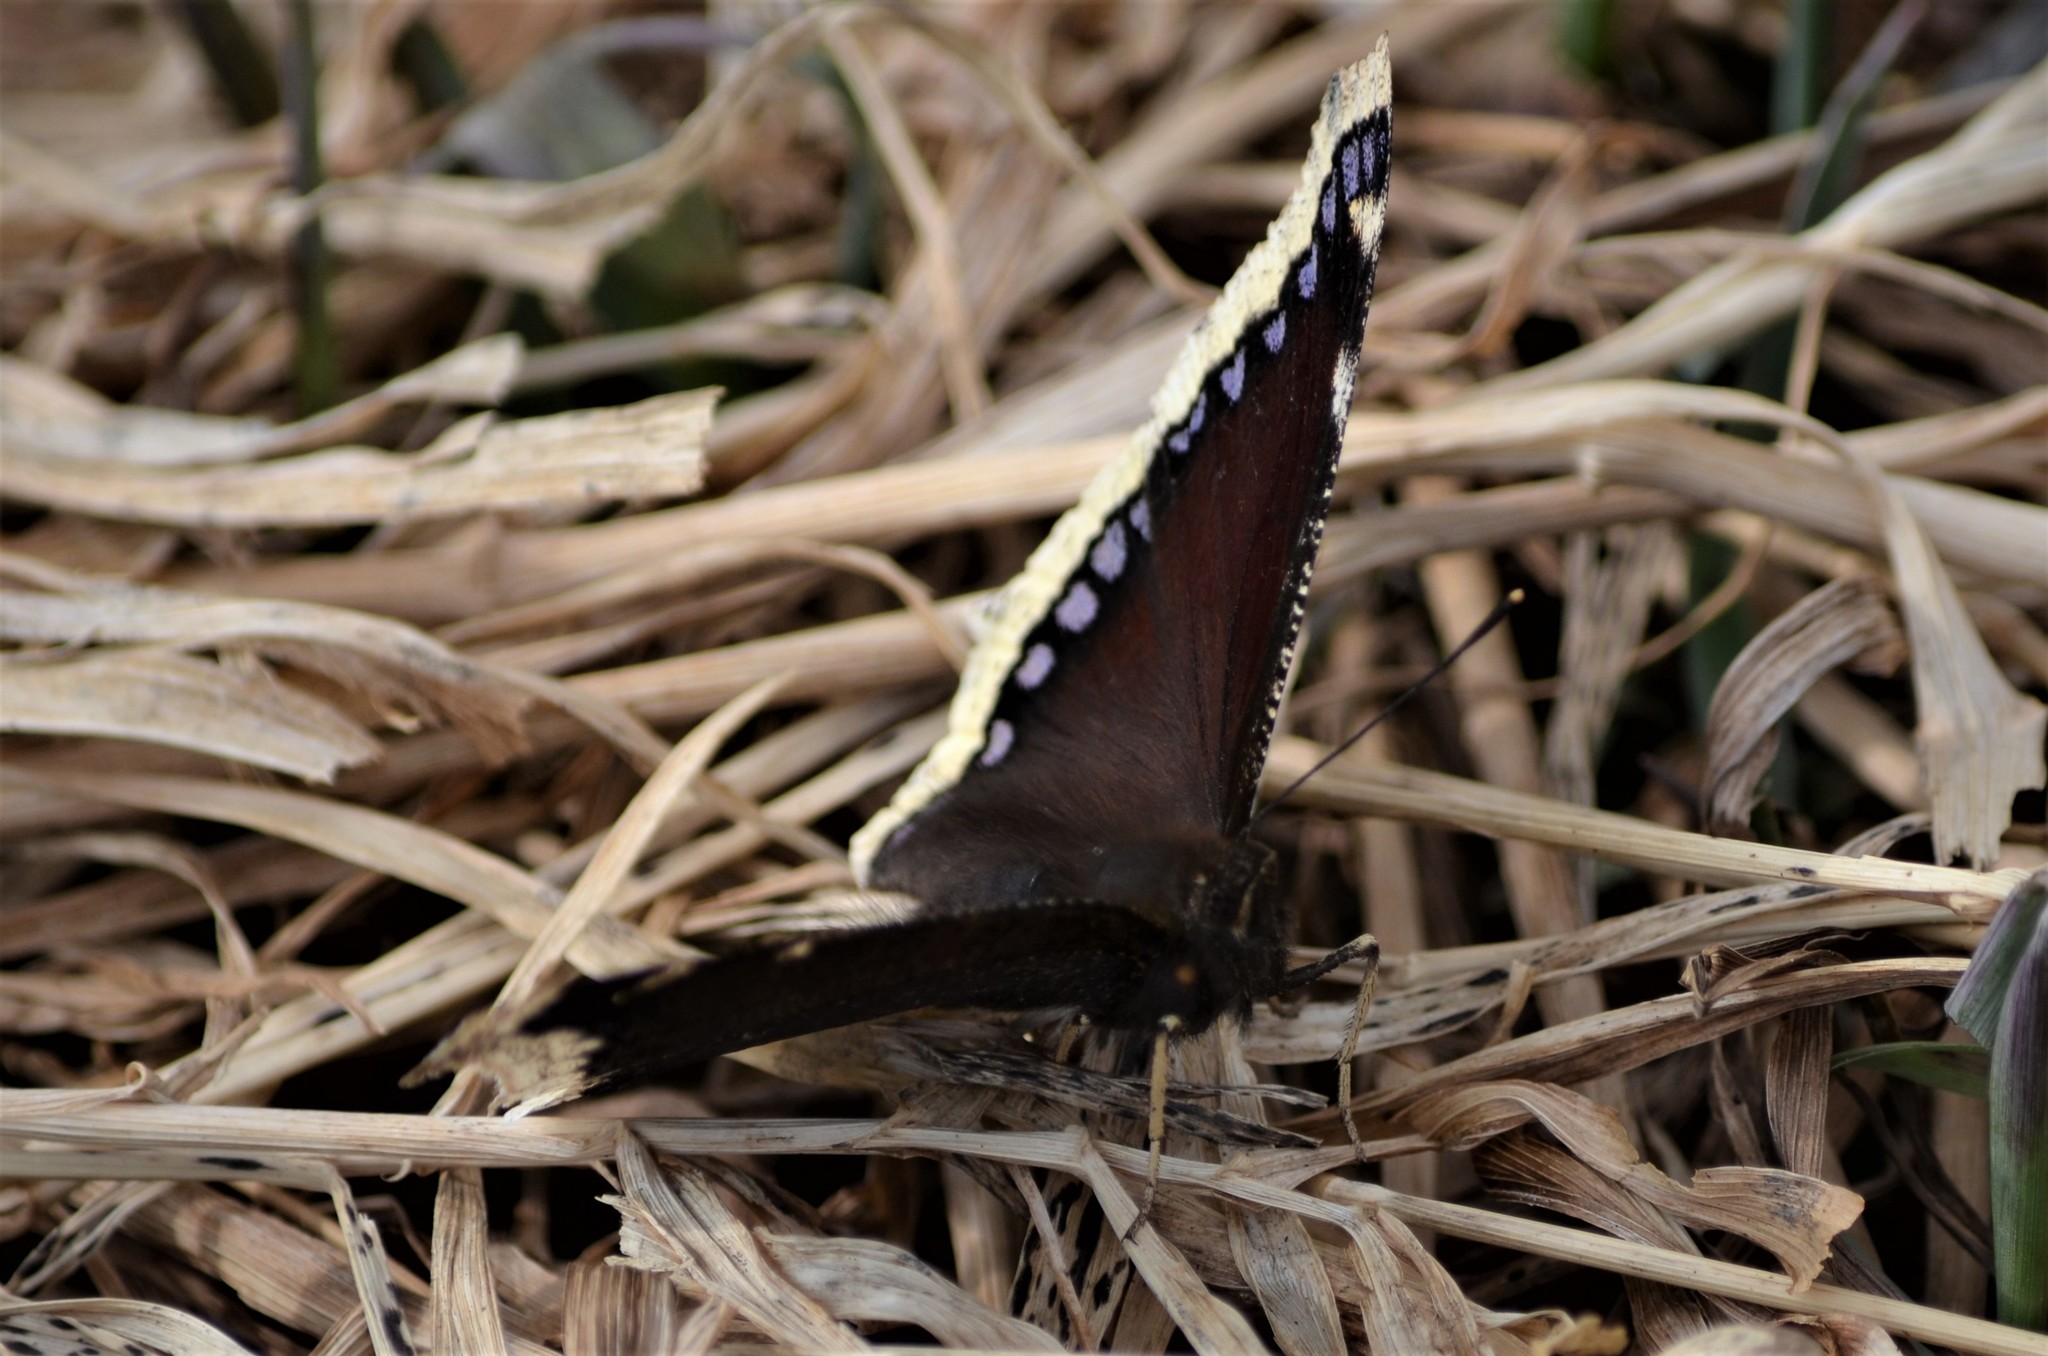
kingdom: Animalia
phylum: Arthropoda
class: Insecta
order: Lepidoptera
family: Nymphalidae
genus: Nymphalis
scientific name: Nymphalis antiopa
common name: Camberwell beauty
